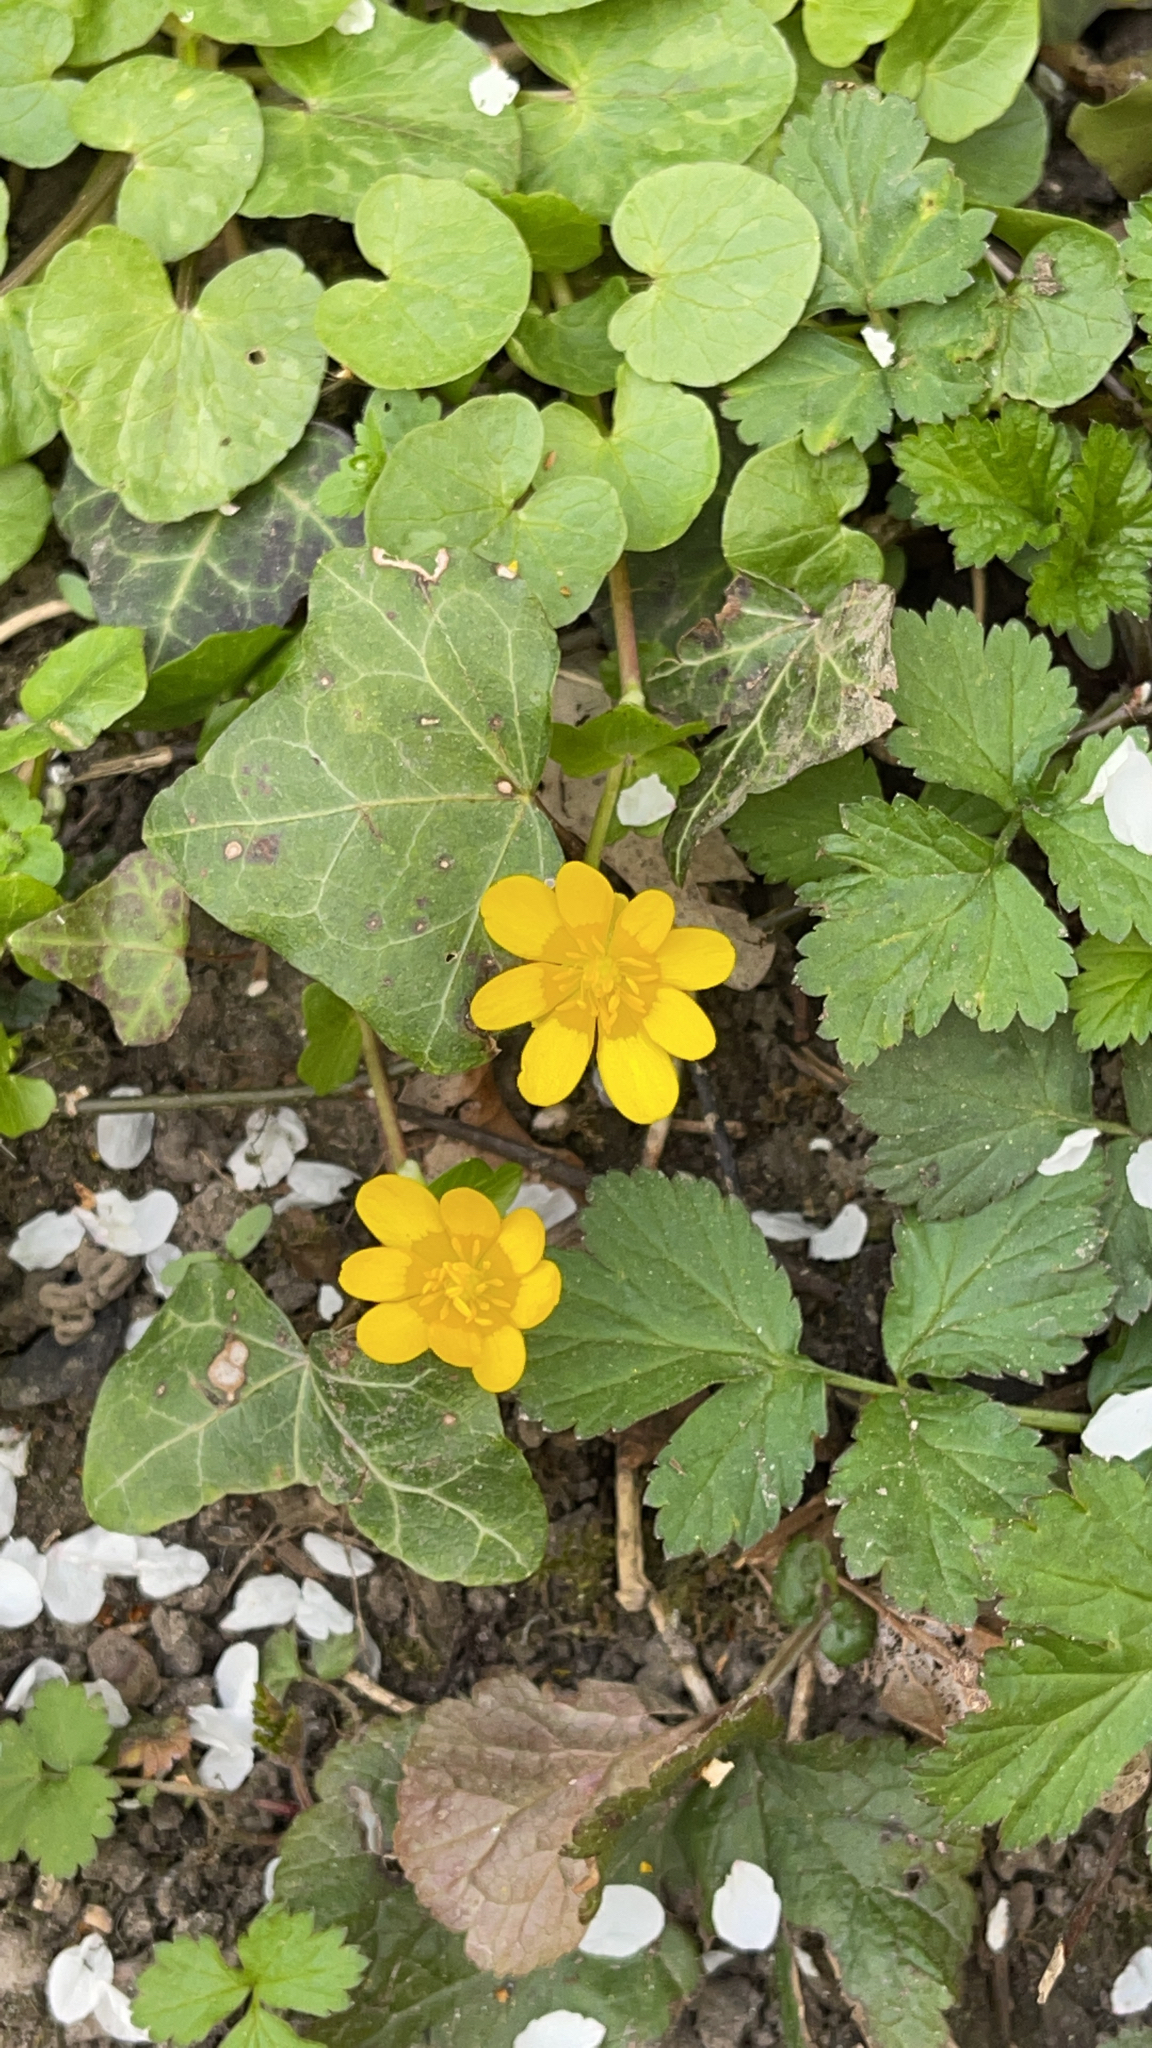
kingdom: Plantae
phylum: Tracheophyta
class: Magnoliopsida
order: Ranunculales
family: Ranunculaceae
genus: Ficaria
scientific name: Ficaria verna
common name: Lesser celandine
